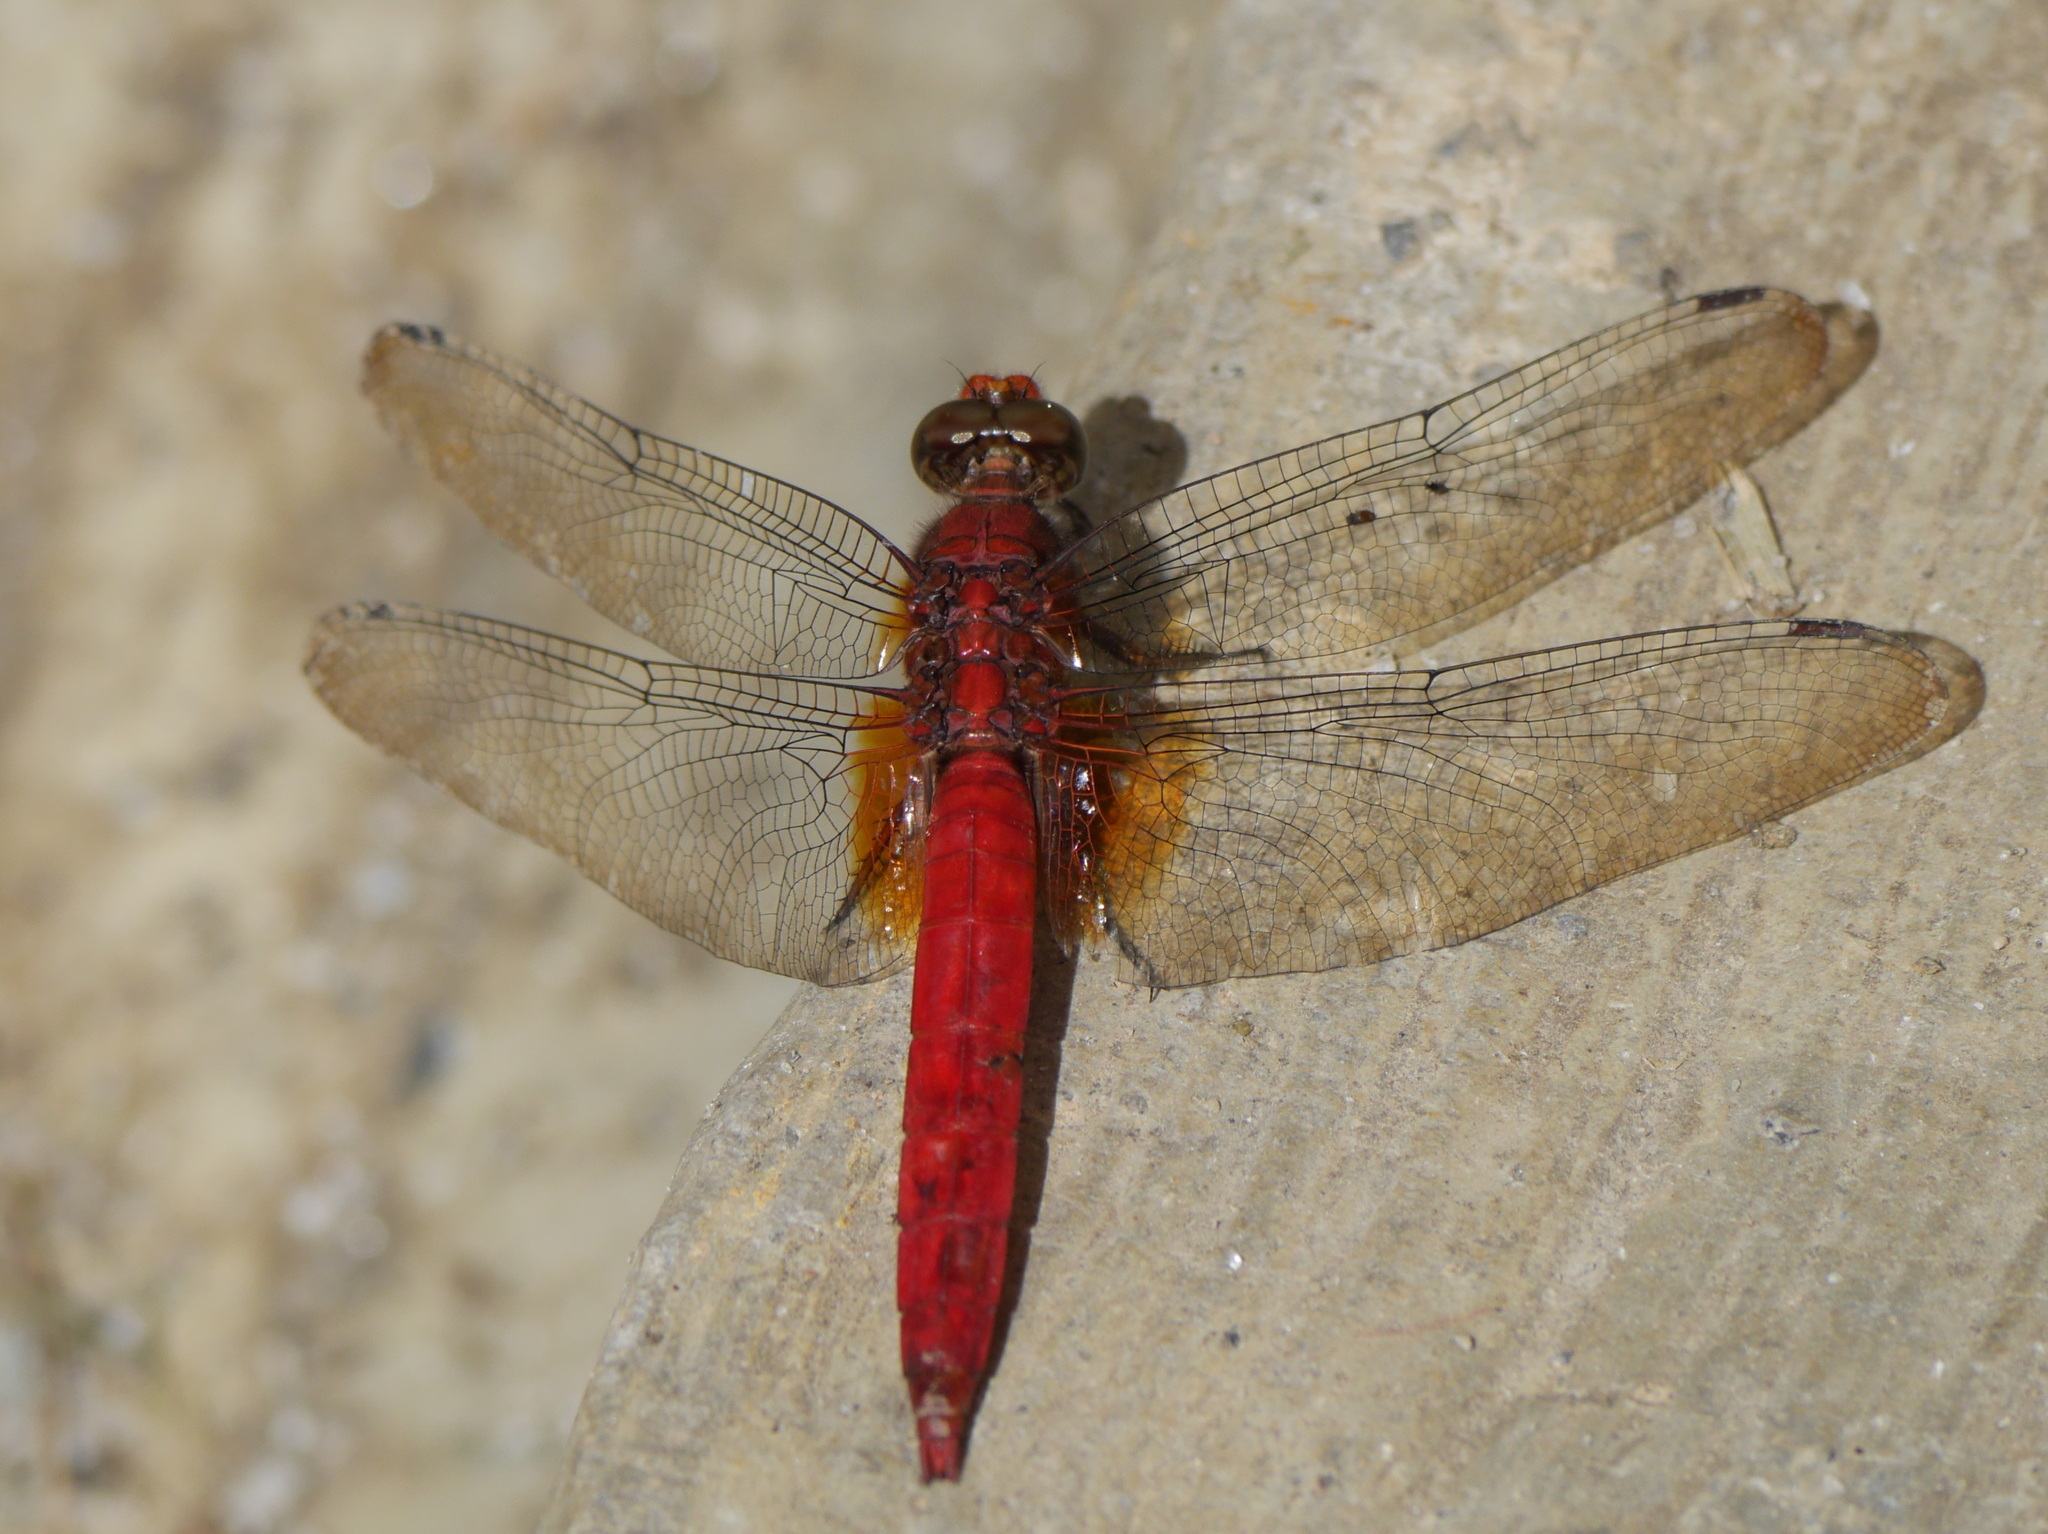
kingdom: Animalia
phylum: Arthropoda
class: Insecta
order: Odonata
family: Libellulidae
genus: Orthetrum
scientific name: Orthetrum testaceum
